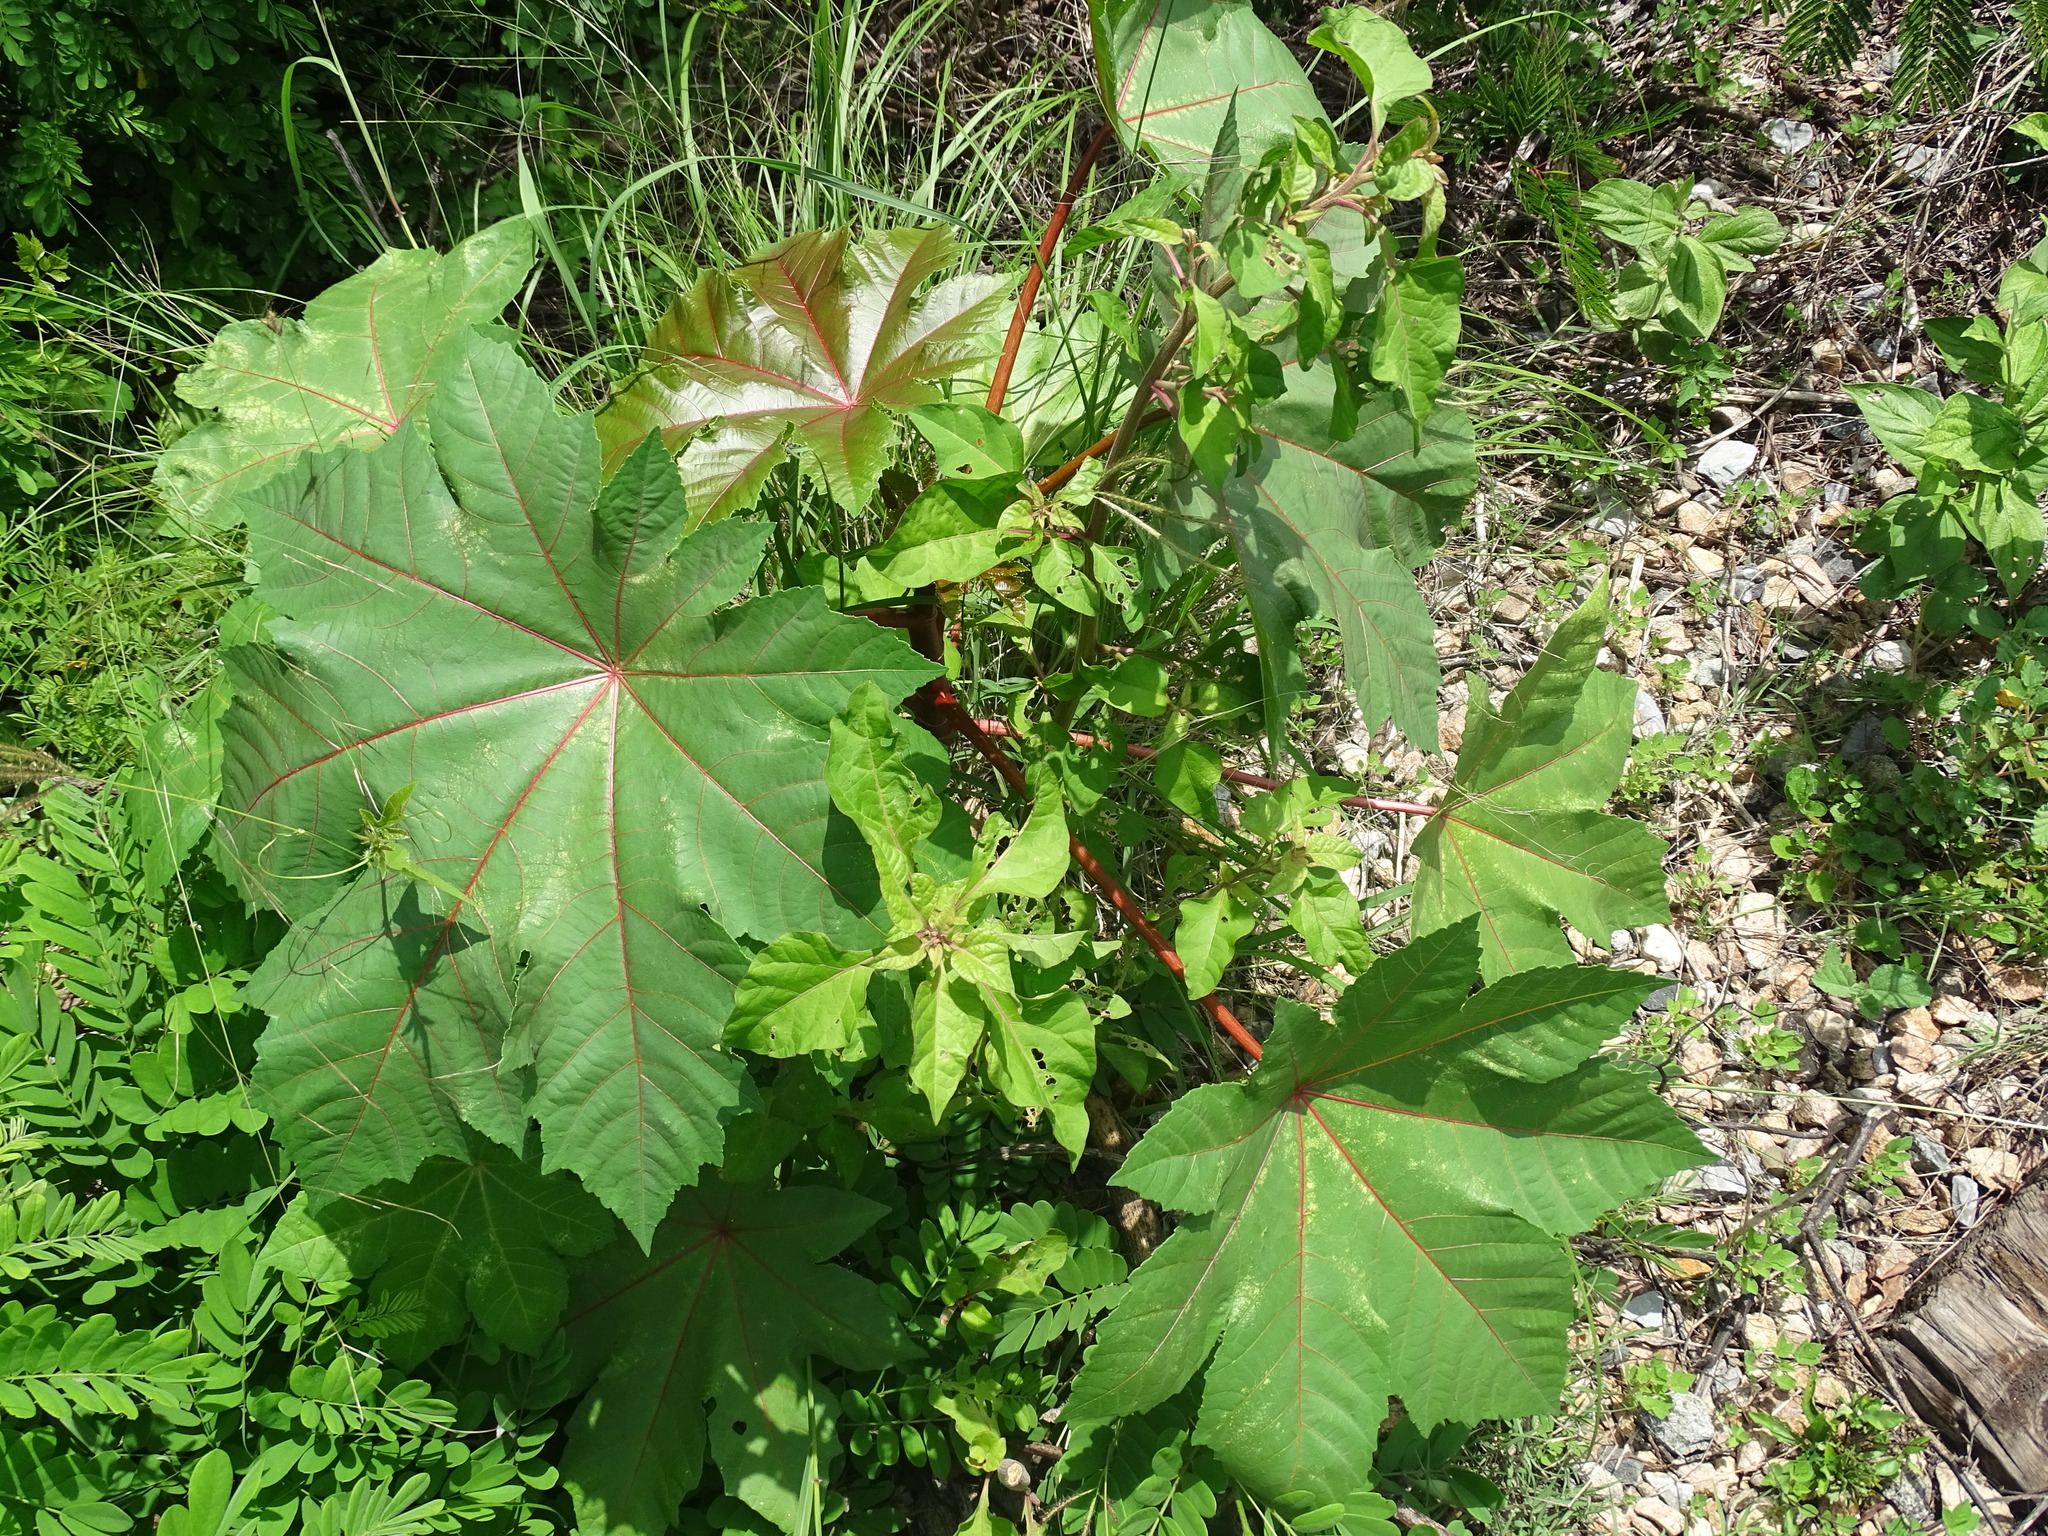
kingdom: Plantae
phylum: Tracheophyta
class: Magnoliopsida
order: Malpighiales
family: Euphorbiaceae
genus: Ricinus
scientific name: Ricinus communis
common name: Castor-oil-plant
